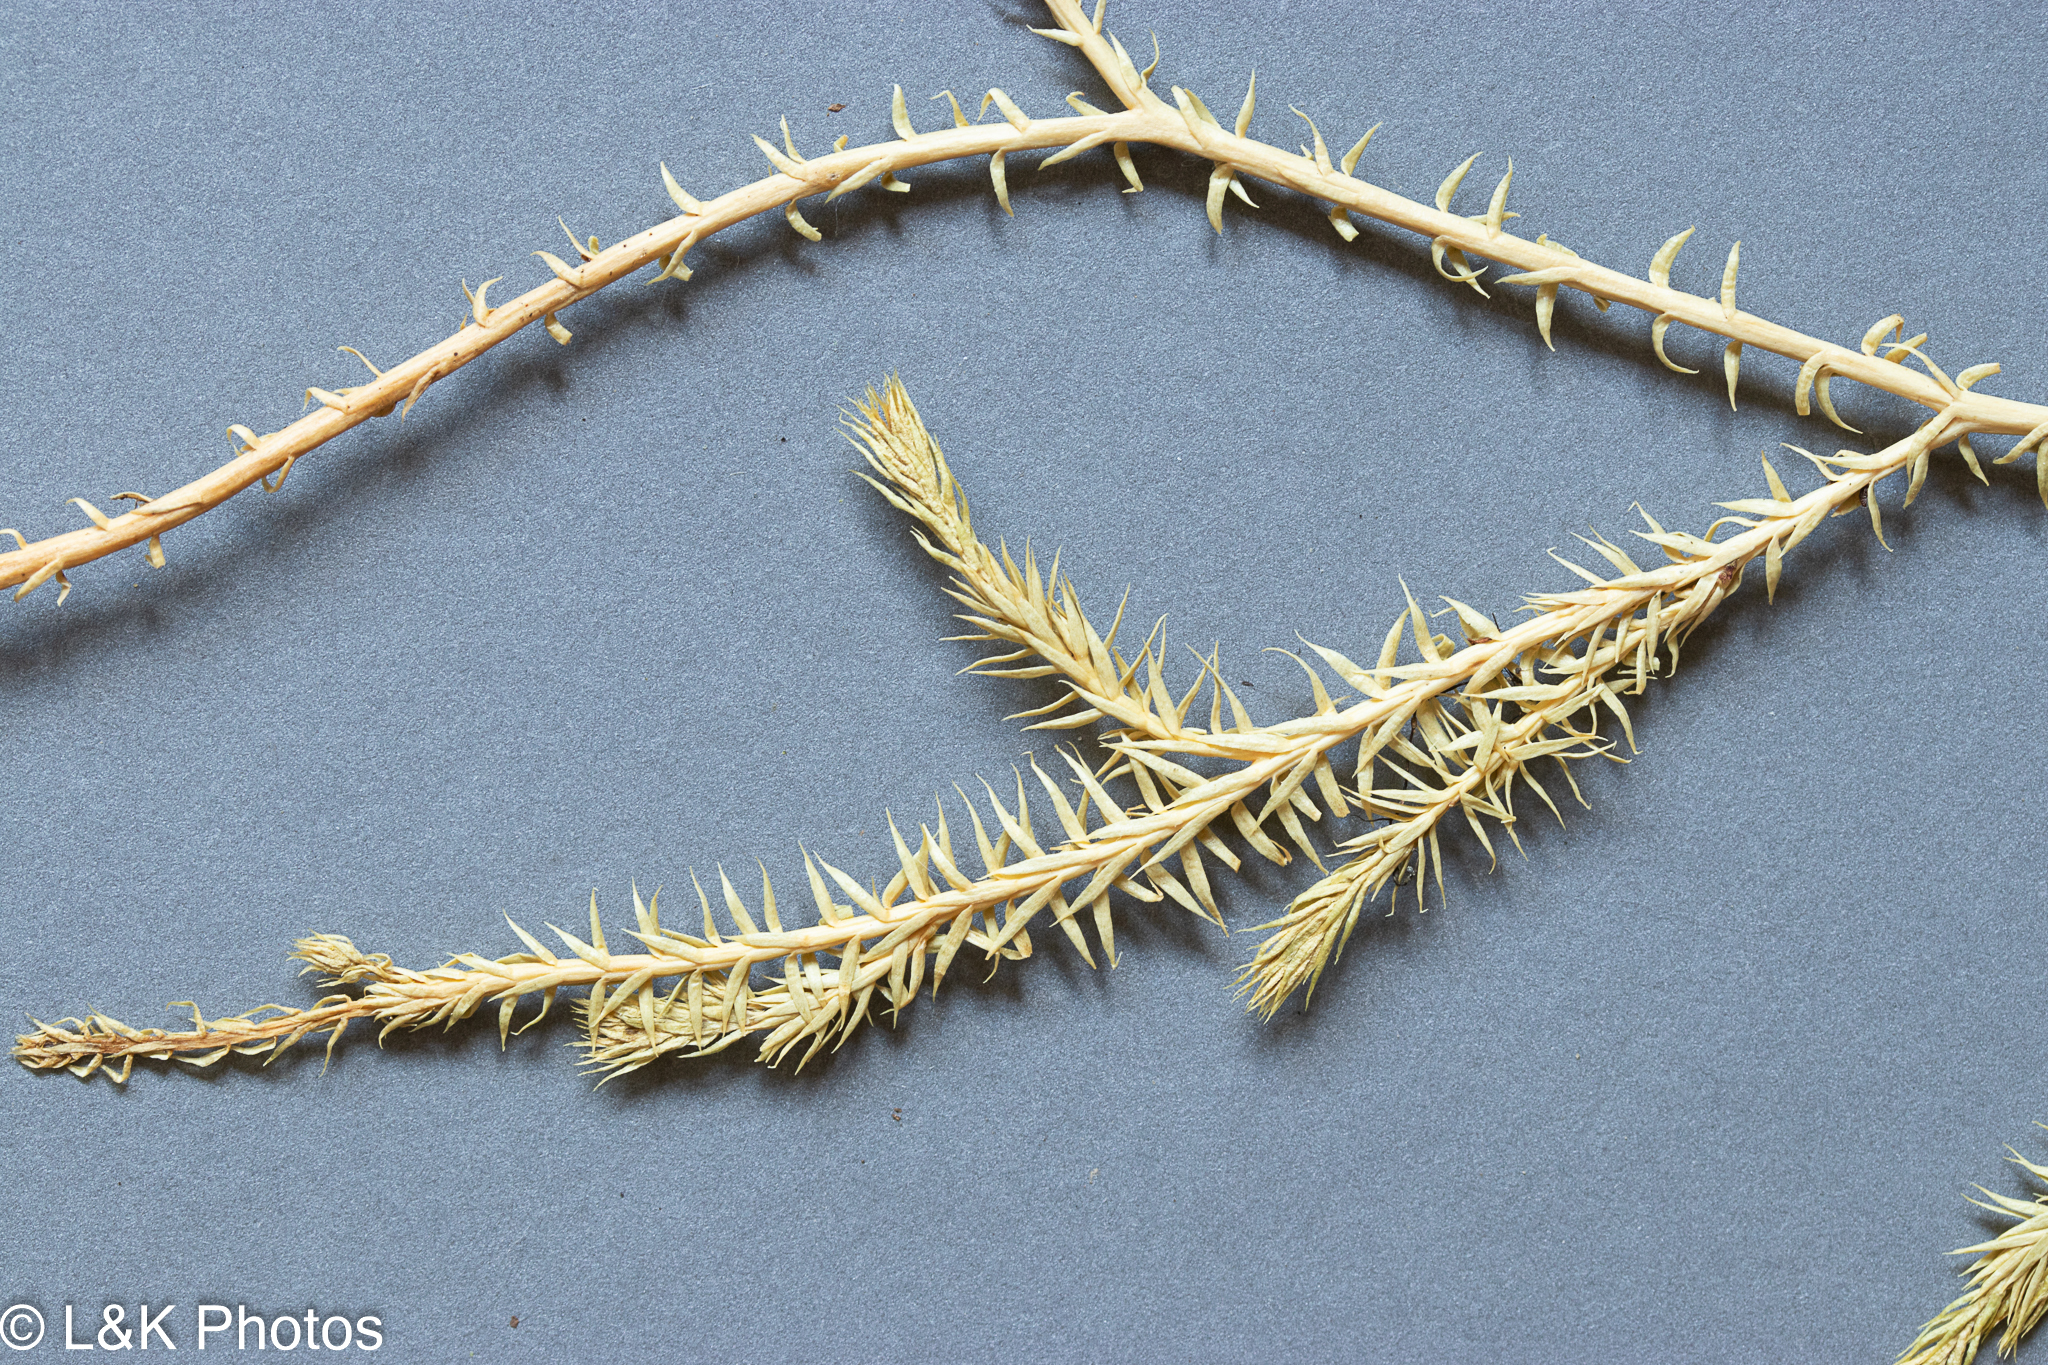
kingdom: Plantae
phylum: Tracheophyta
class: Lycopodiopsida
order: Lycopodiales
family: Lycopodiaceae
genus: Spinulum
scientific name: Spinulum annotinum
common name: Interrupted club-moss
